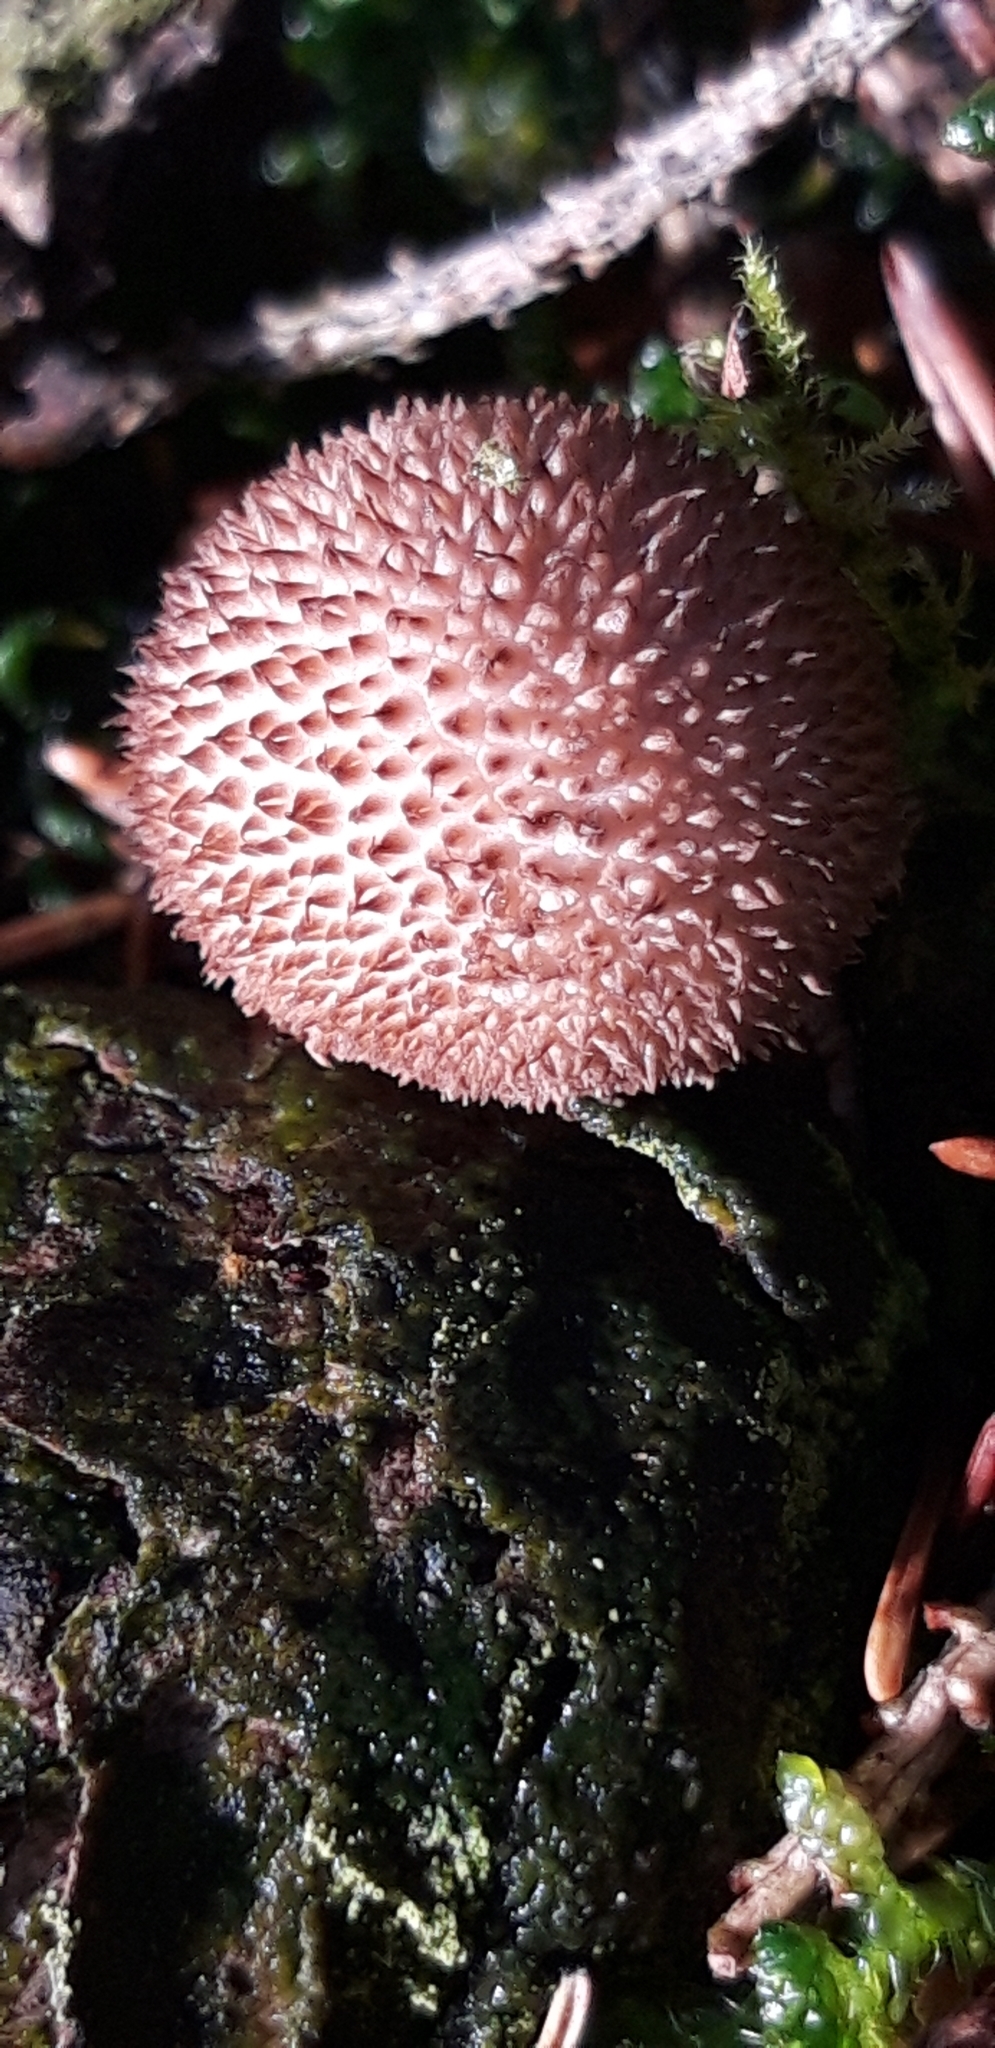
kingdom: Fungi
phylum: Basidiomycota
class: Agaricomycetes
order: Agaricales
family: Lycoperdaceae
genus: Lycoperdon
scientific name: Lycoperdon
